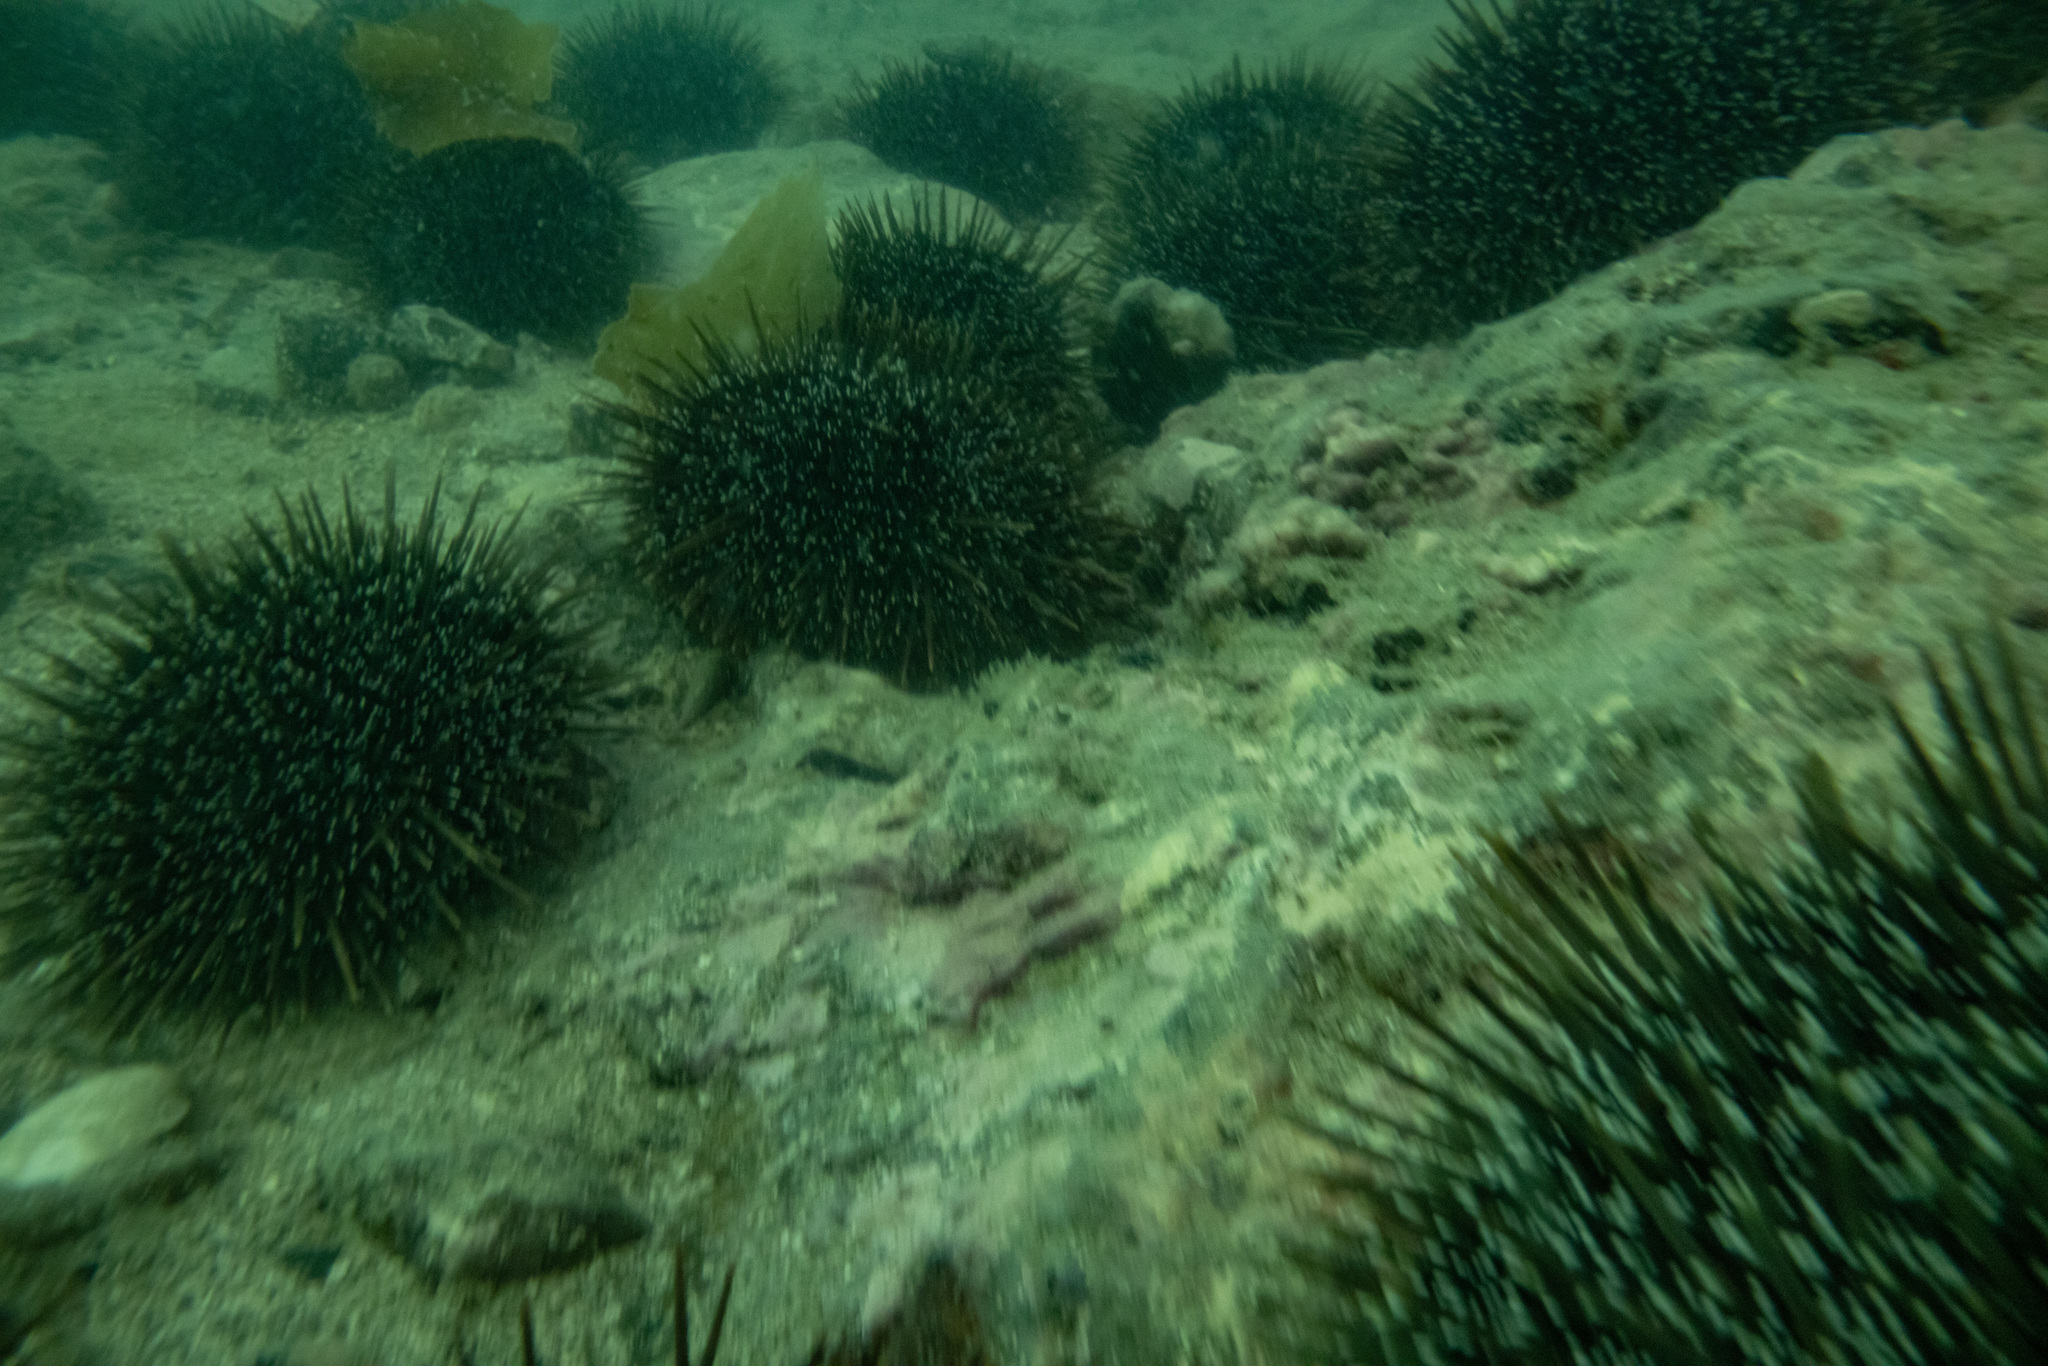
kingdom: Animalia
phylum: Echinodermata
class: Echinoidea
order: Camarodonta
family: Echinometridae
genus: Evechinus
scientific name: Evechinus chloroticus
